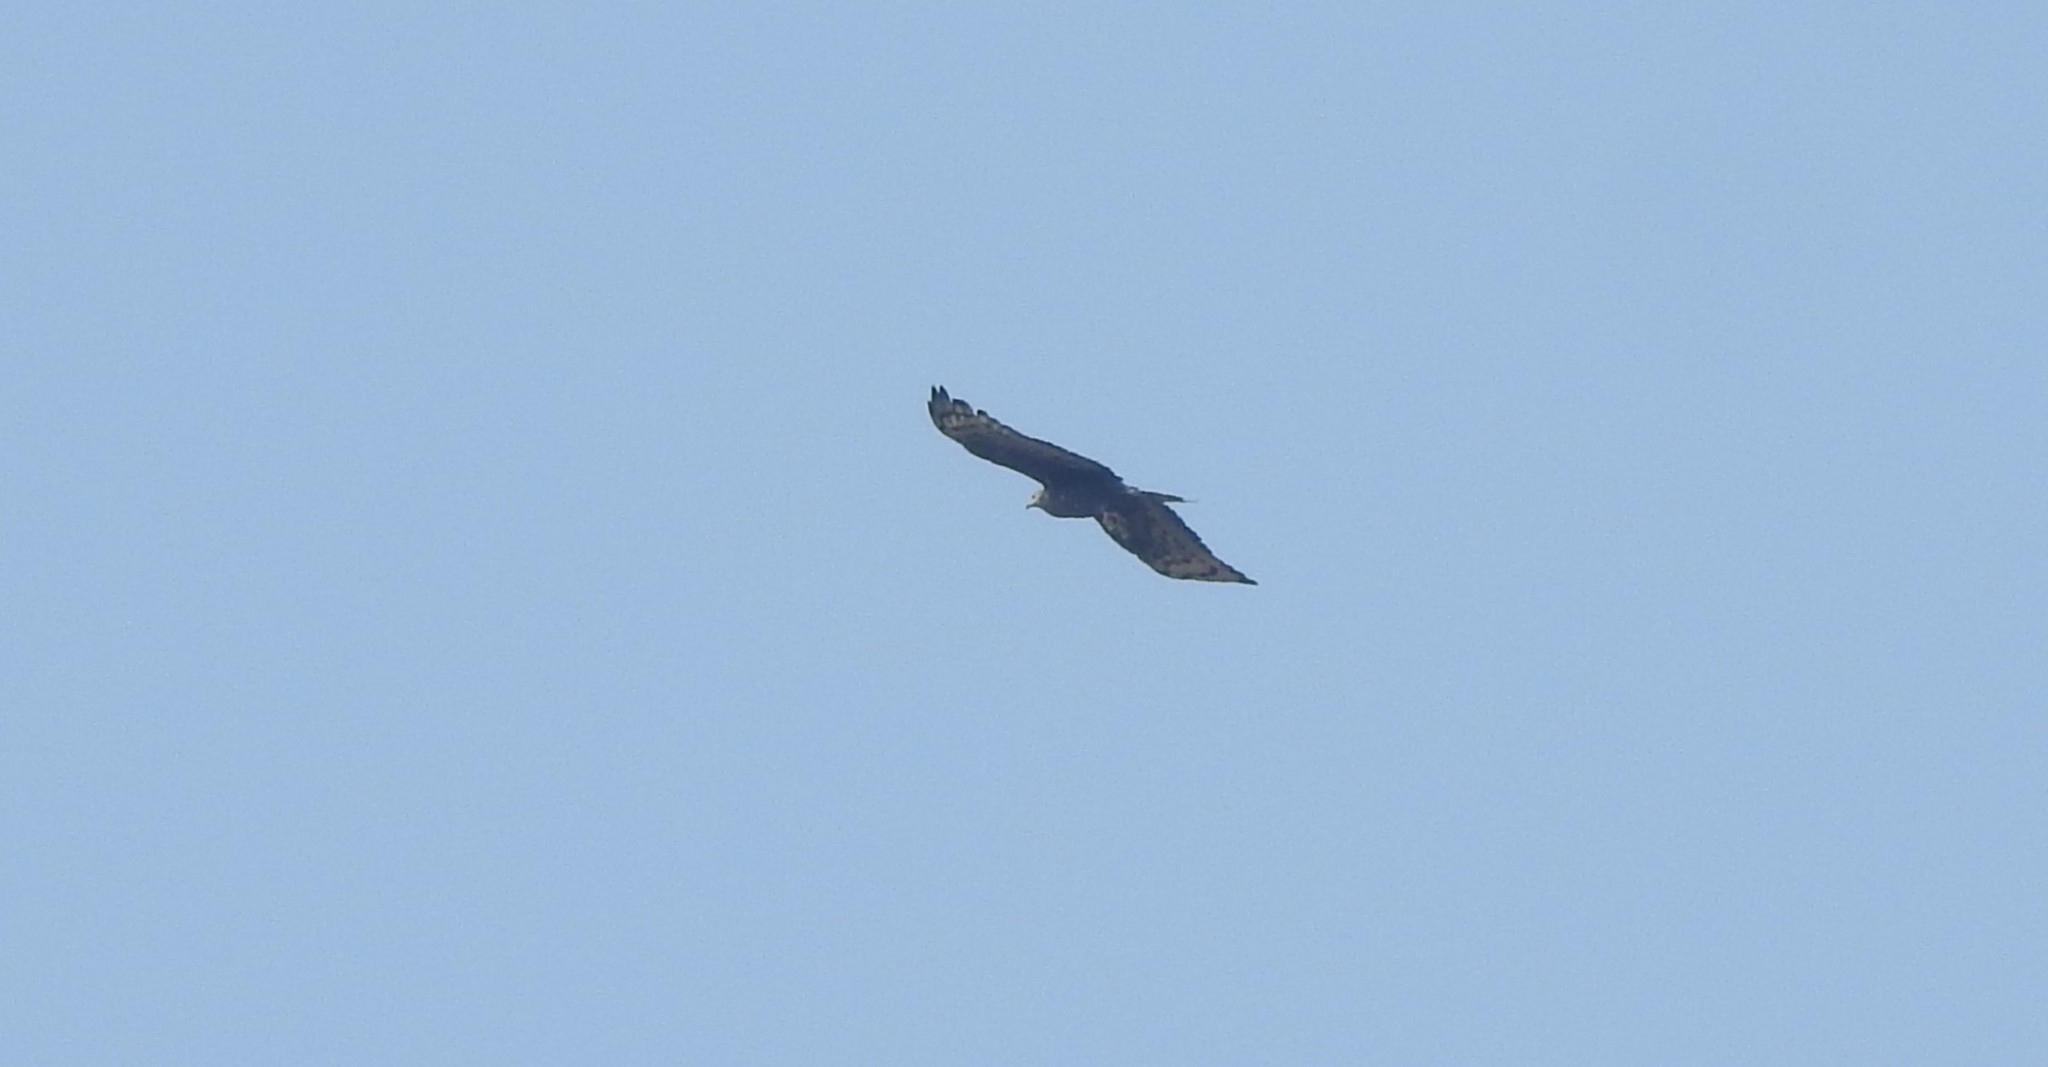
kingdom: Animalia
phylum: Chordata
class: Aves
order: Accipitriformes
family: Accipitridae
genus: Pernis
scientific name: Pernis ptilorhynchus
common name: Crested honey buzzard
